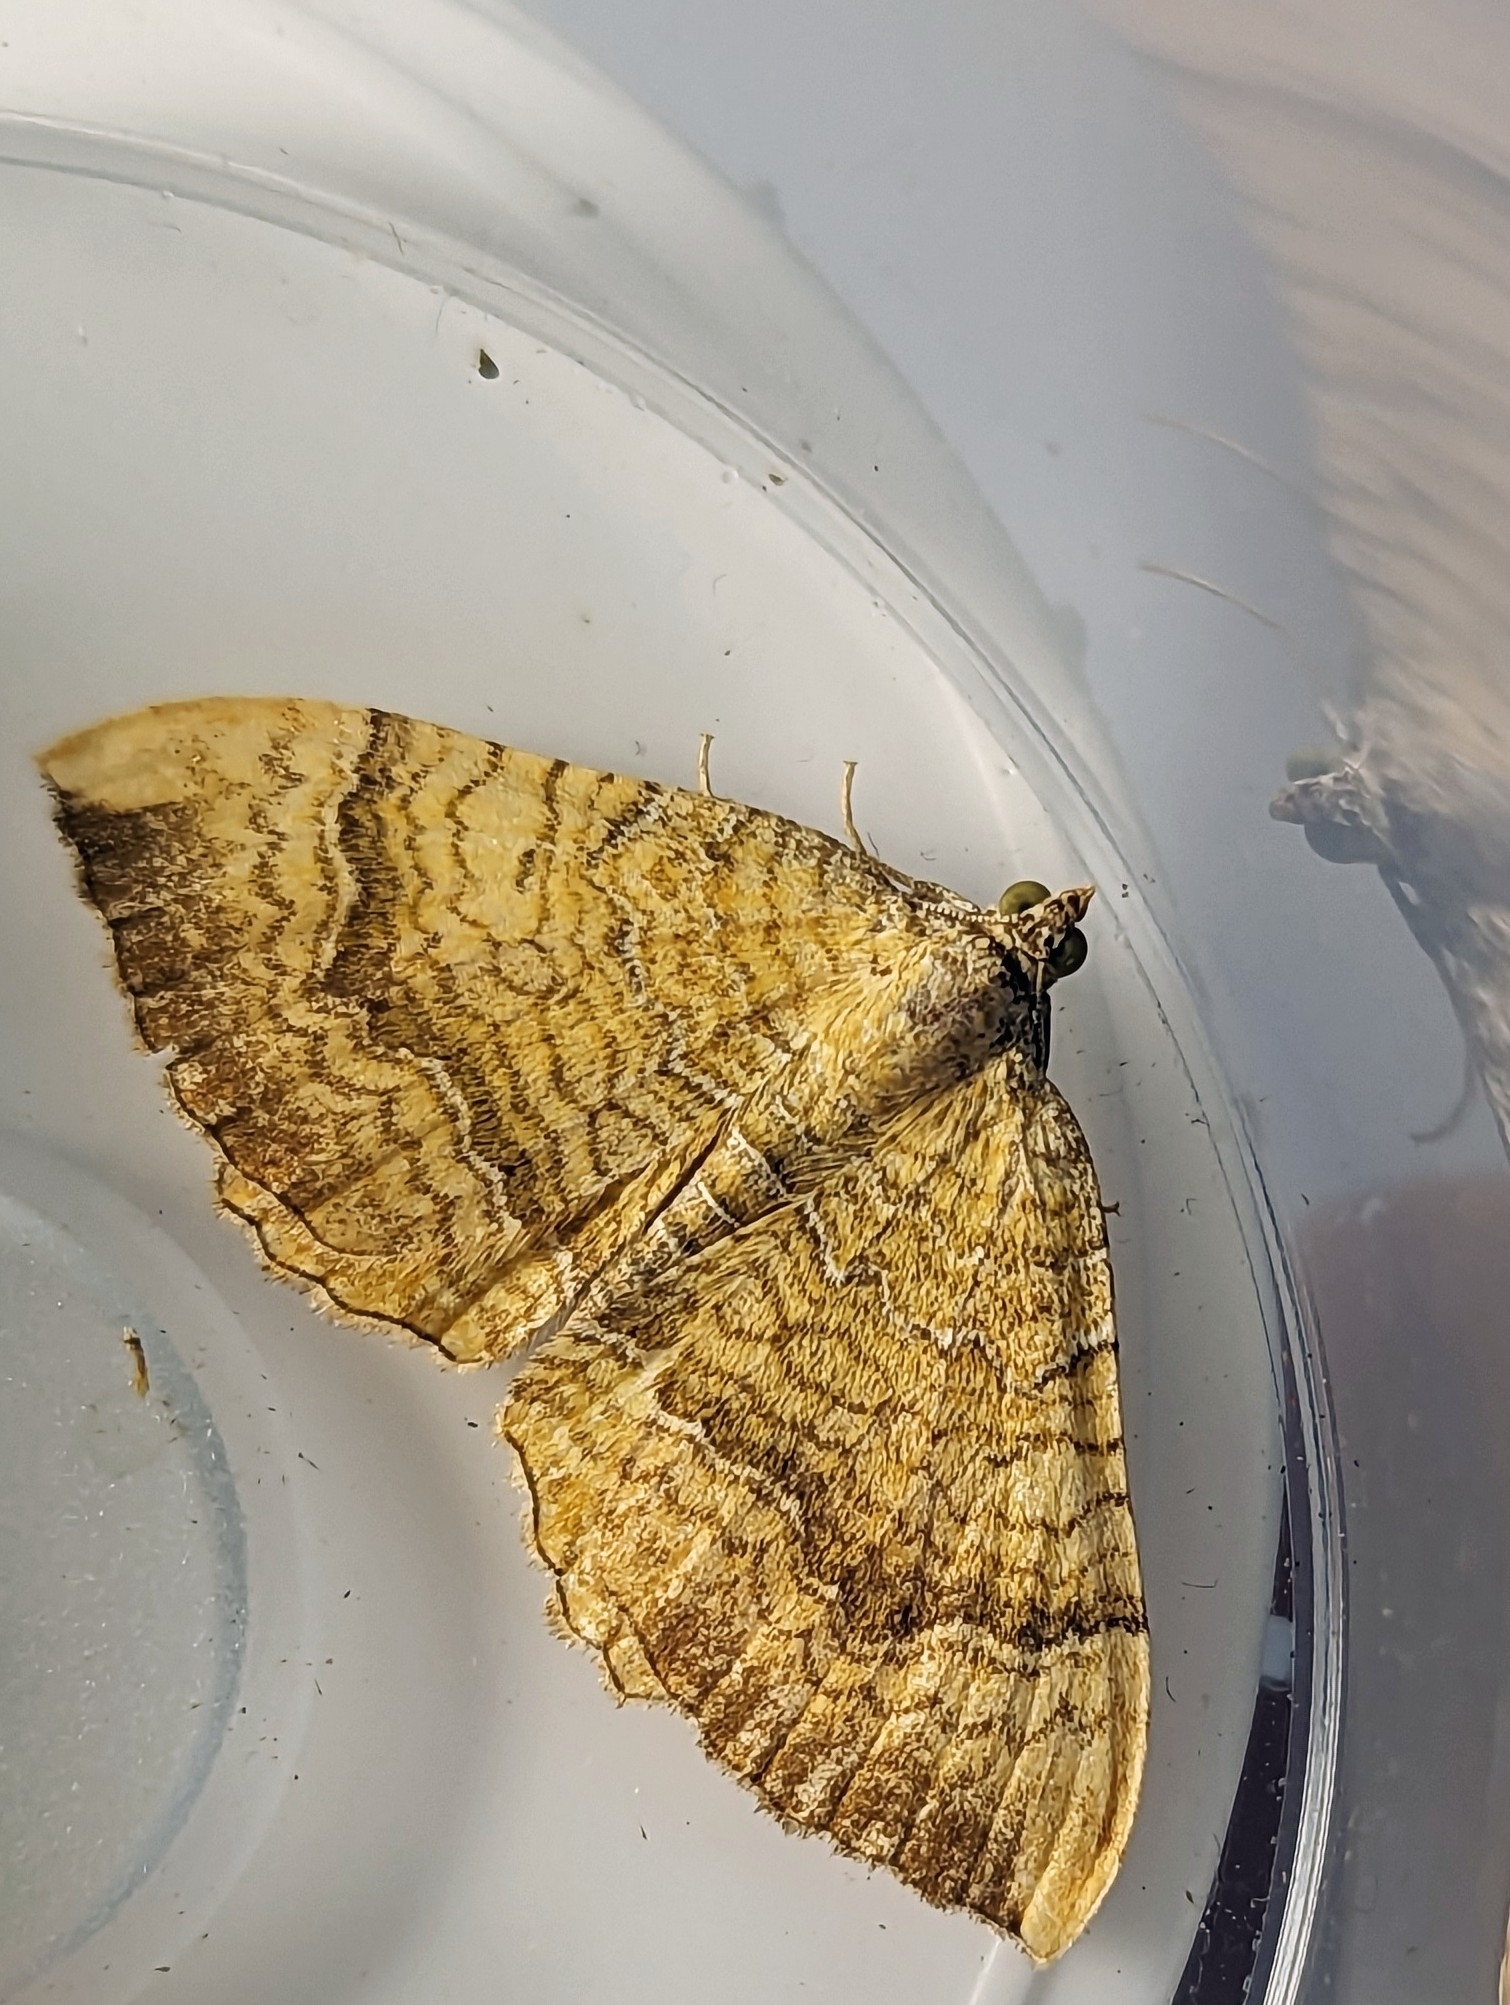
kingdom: Animalia
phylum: Arthropoda
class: Insecta
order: Lepidoptera
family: Geometridae
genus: Camptogramma
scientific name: Camptogramma bilineata
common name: Yellow shell
